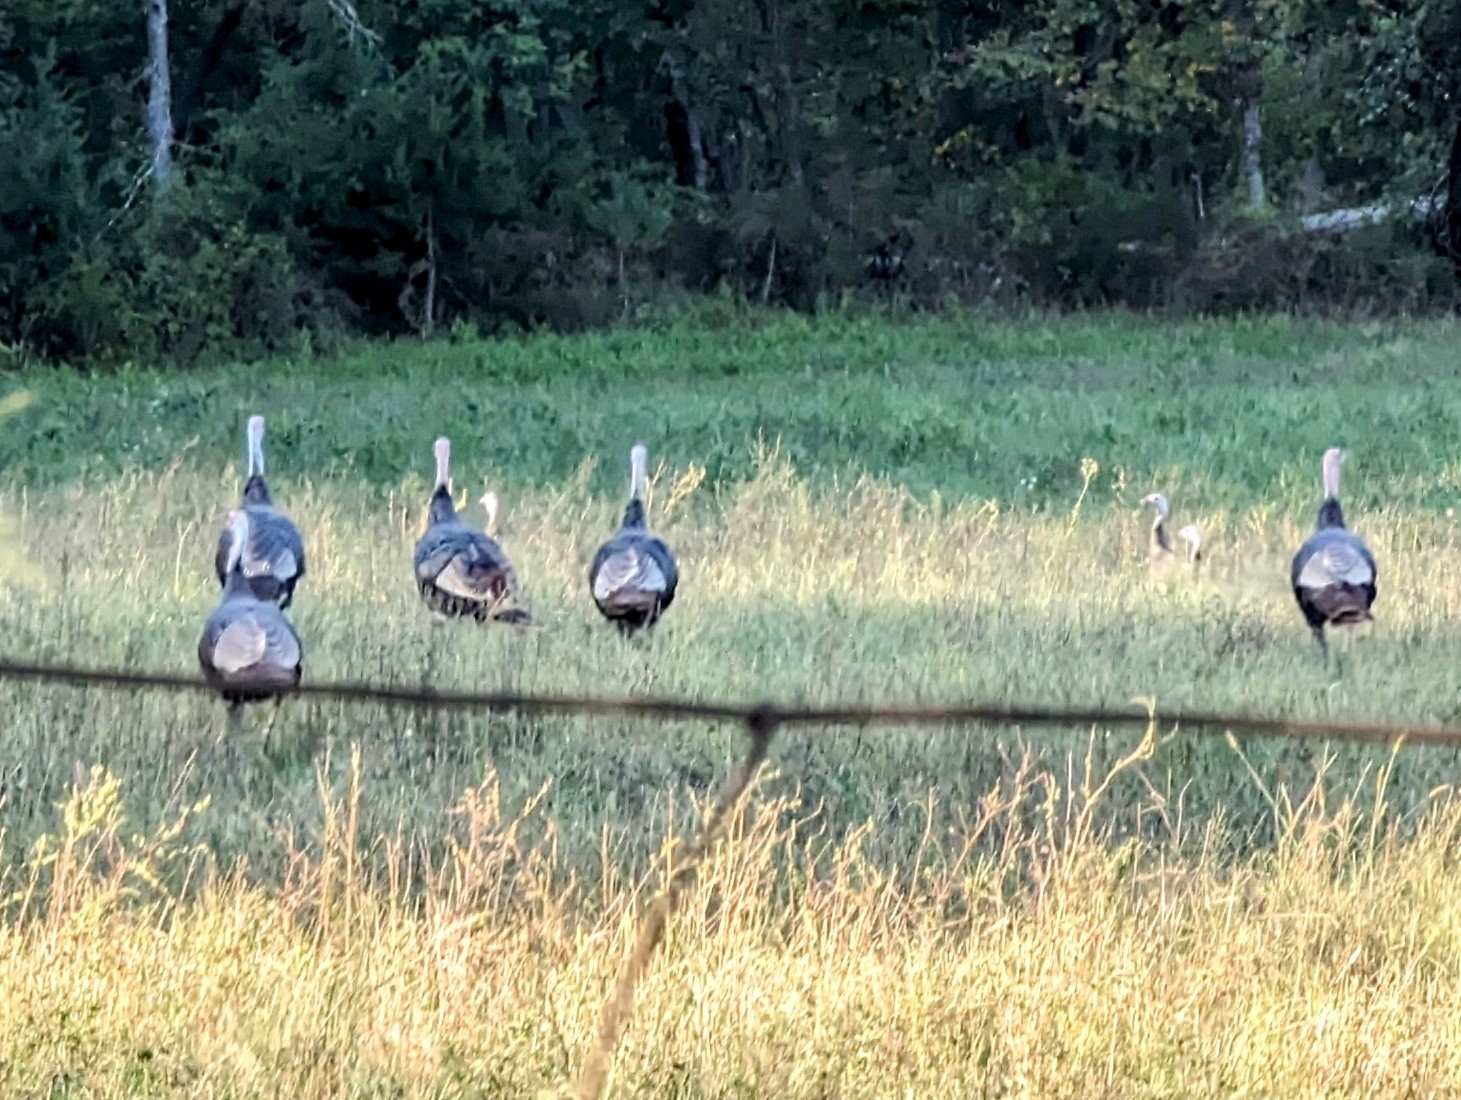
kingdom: Animalia
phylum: Chordata
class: Aves
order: Galliformes
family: Phasianidae
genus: Meleagris
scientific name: Meleagris gallopavo
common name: Wild turkey
